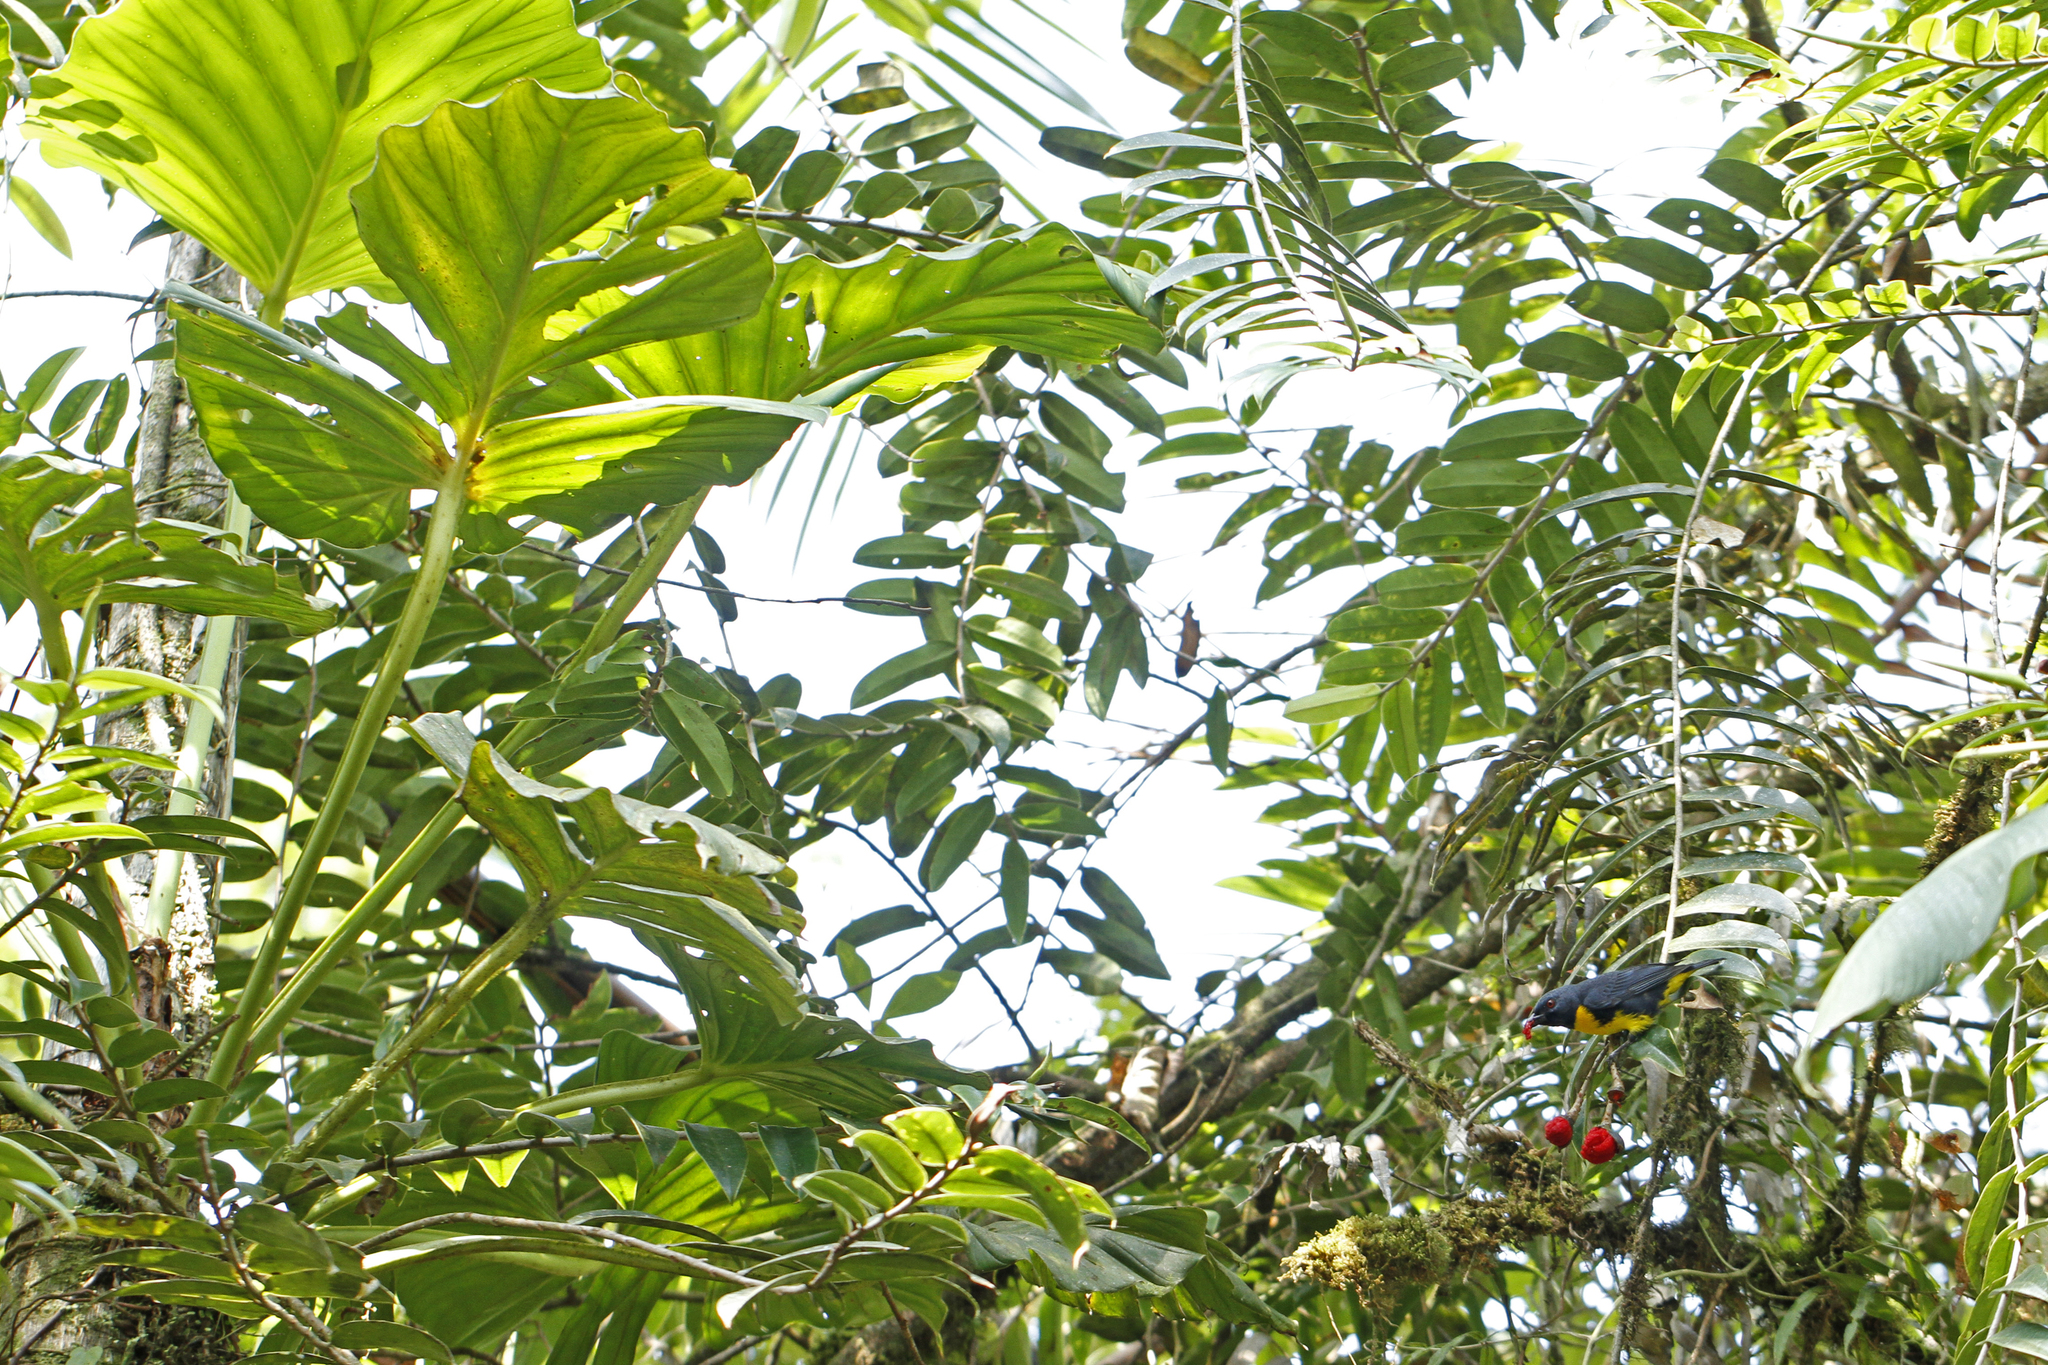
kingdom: Animalia
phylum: Chordata
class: Aves
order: Passeriformes
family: Thraupidae
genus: Bangsia
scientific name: Bangsia arcaei
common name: Blue-and-gold tanager
